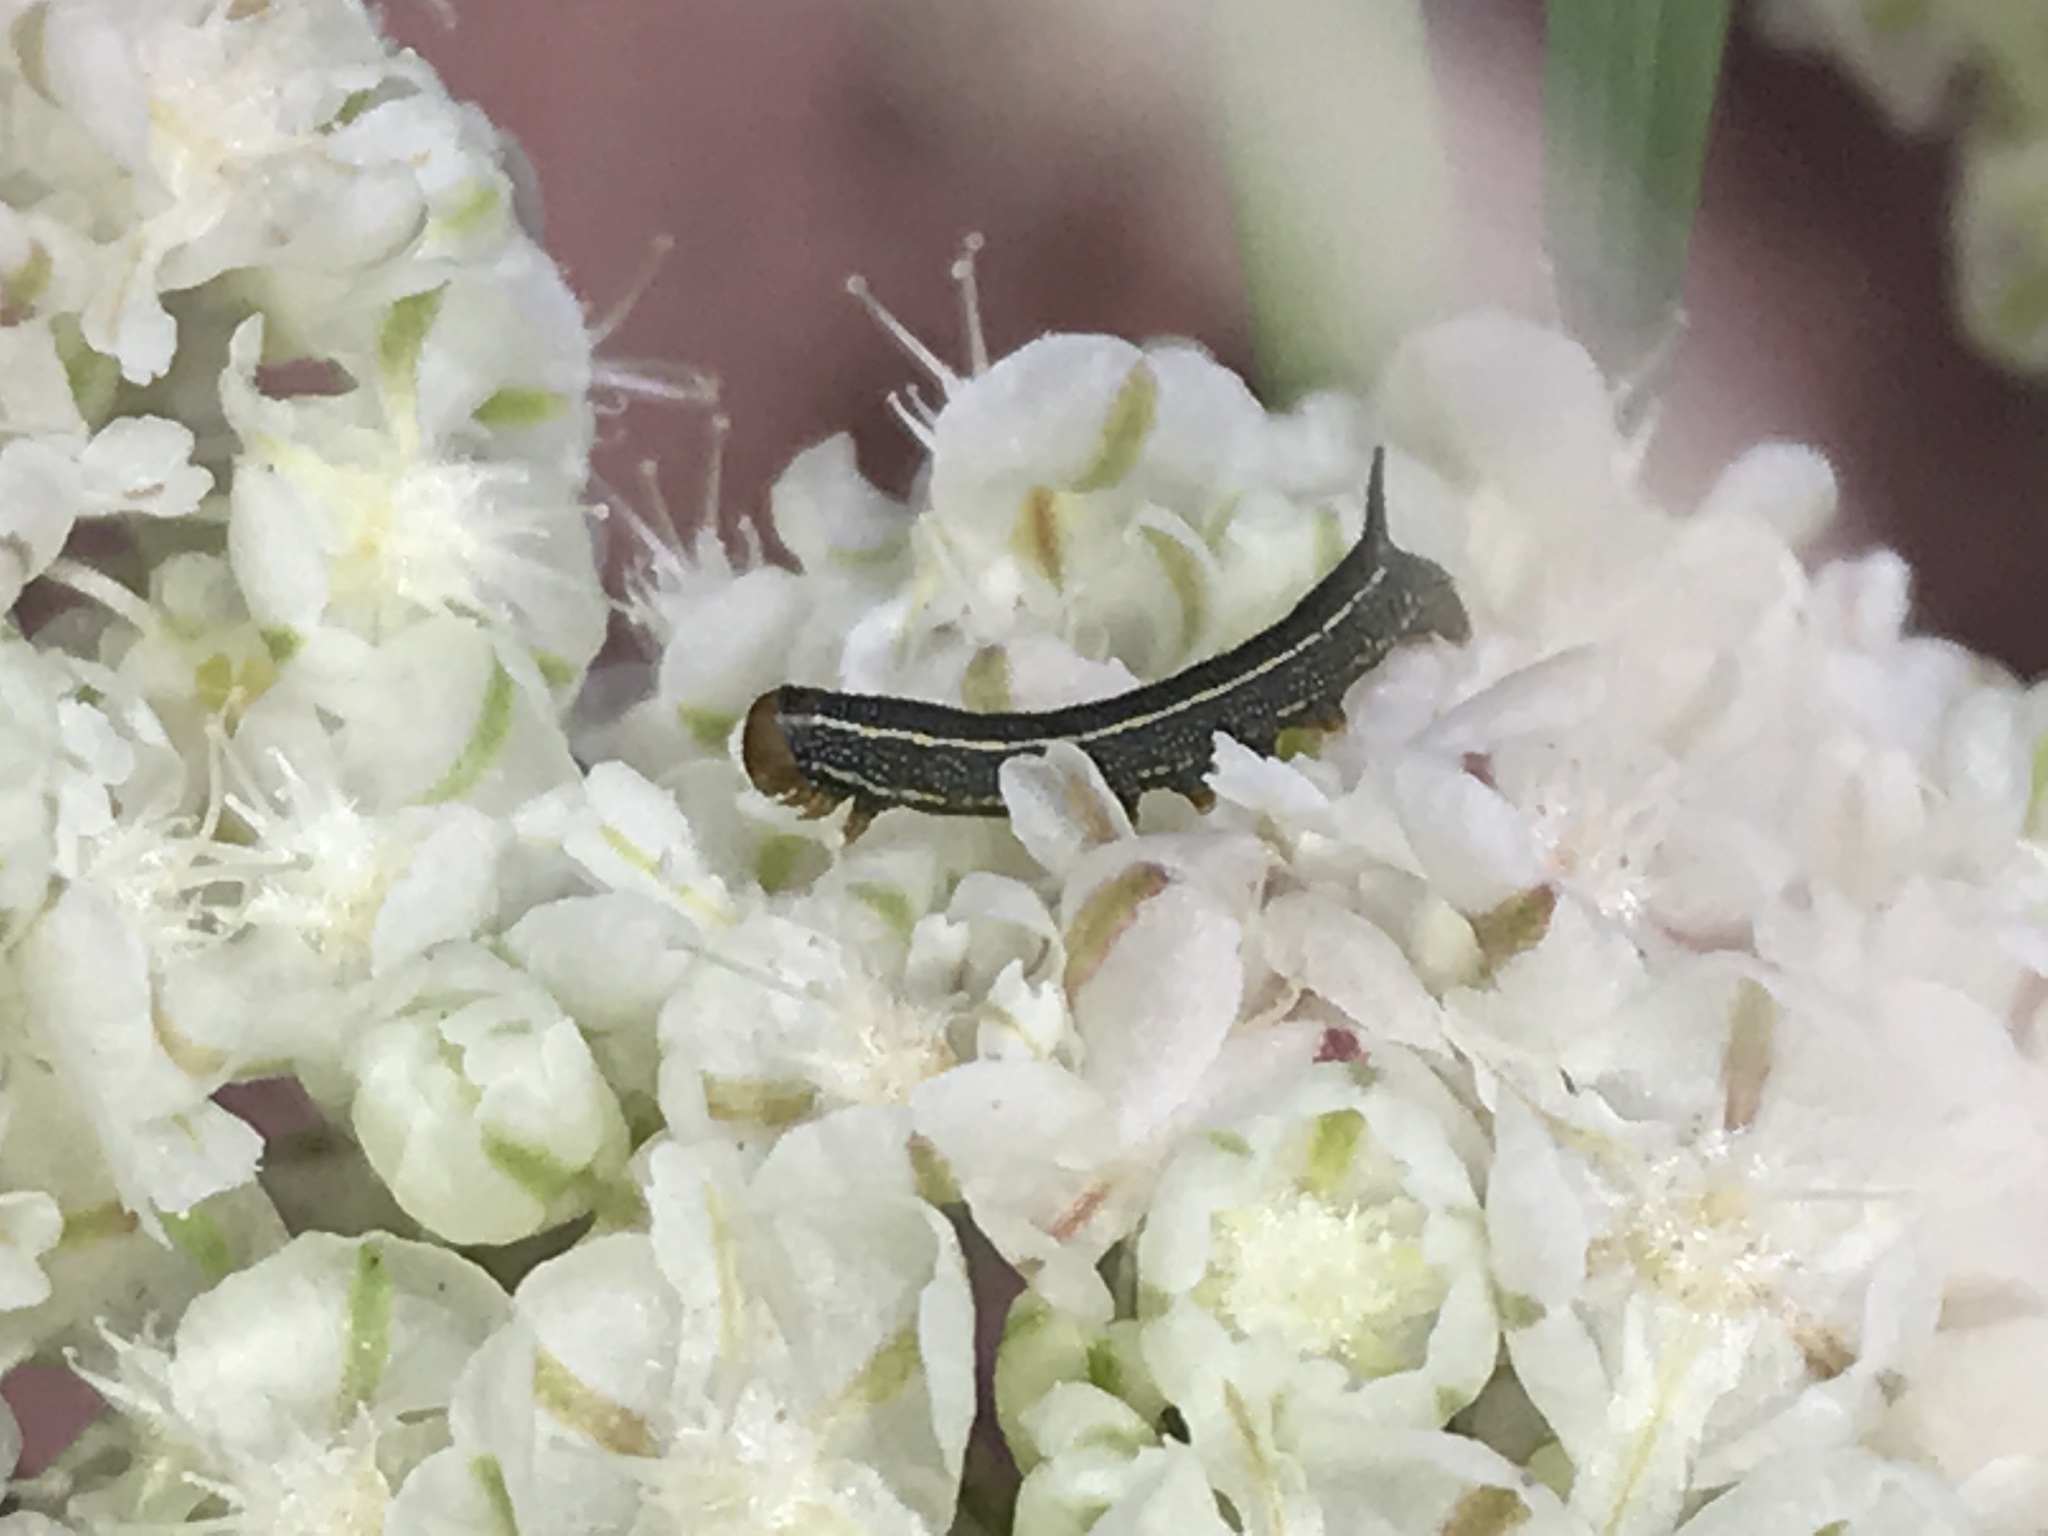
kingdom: Animalia
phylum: Arthropoda
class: Insecta
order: Lepidoptera
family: Sphingidae
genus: Hyles
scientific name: Hyles lineata
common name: White-lined sphinx
